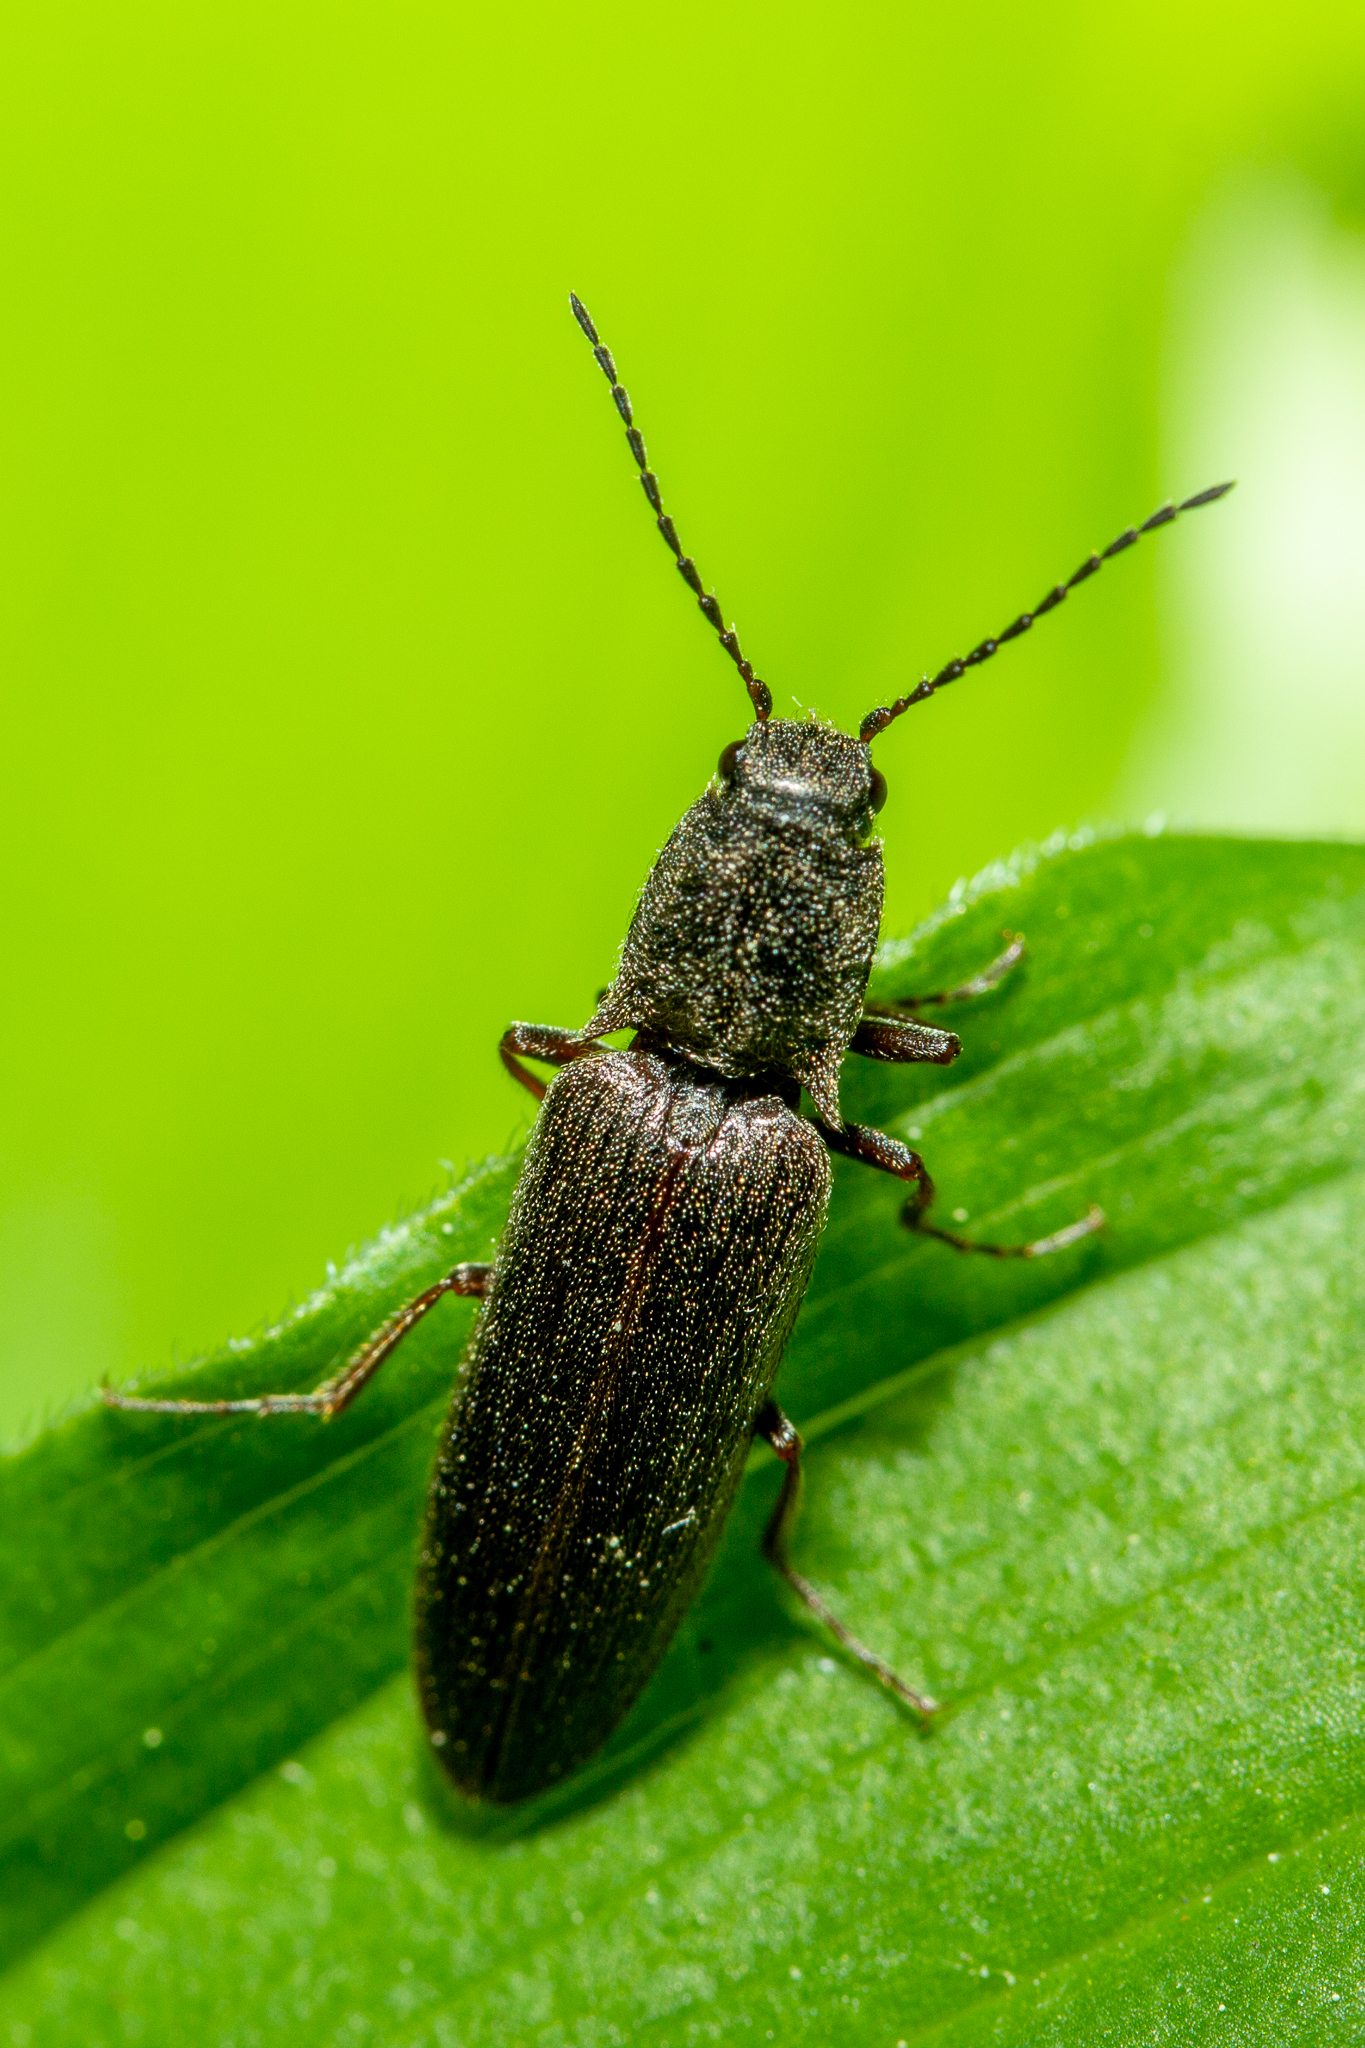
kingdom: Animalia
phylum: Arthropoda
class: Insecta
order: Coleoptera
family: Elateridae
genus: Sylvanelater
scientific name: Sylvanelater cylindriformis
